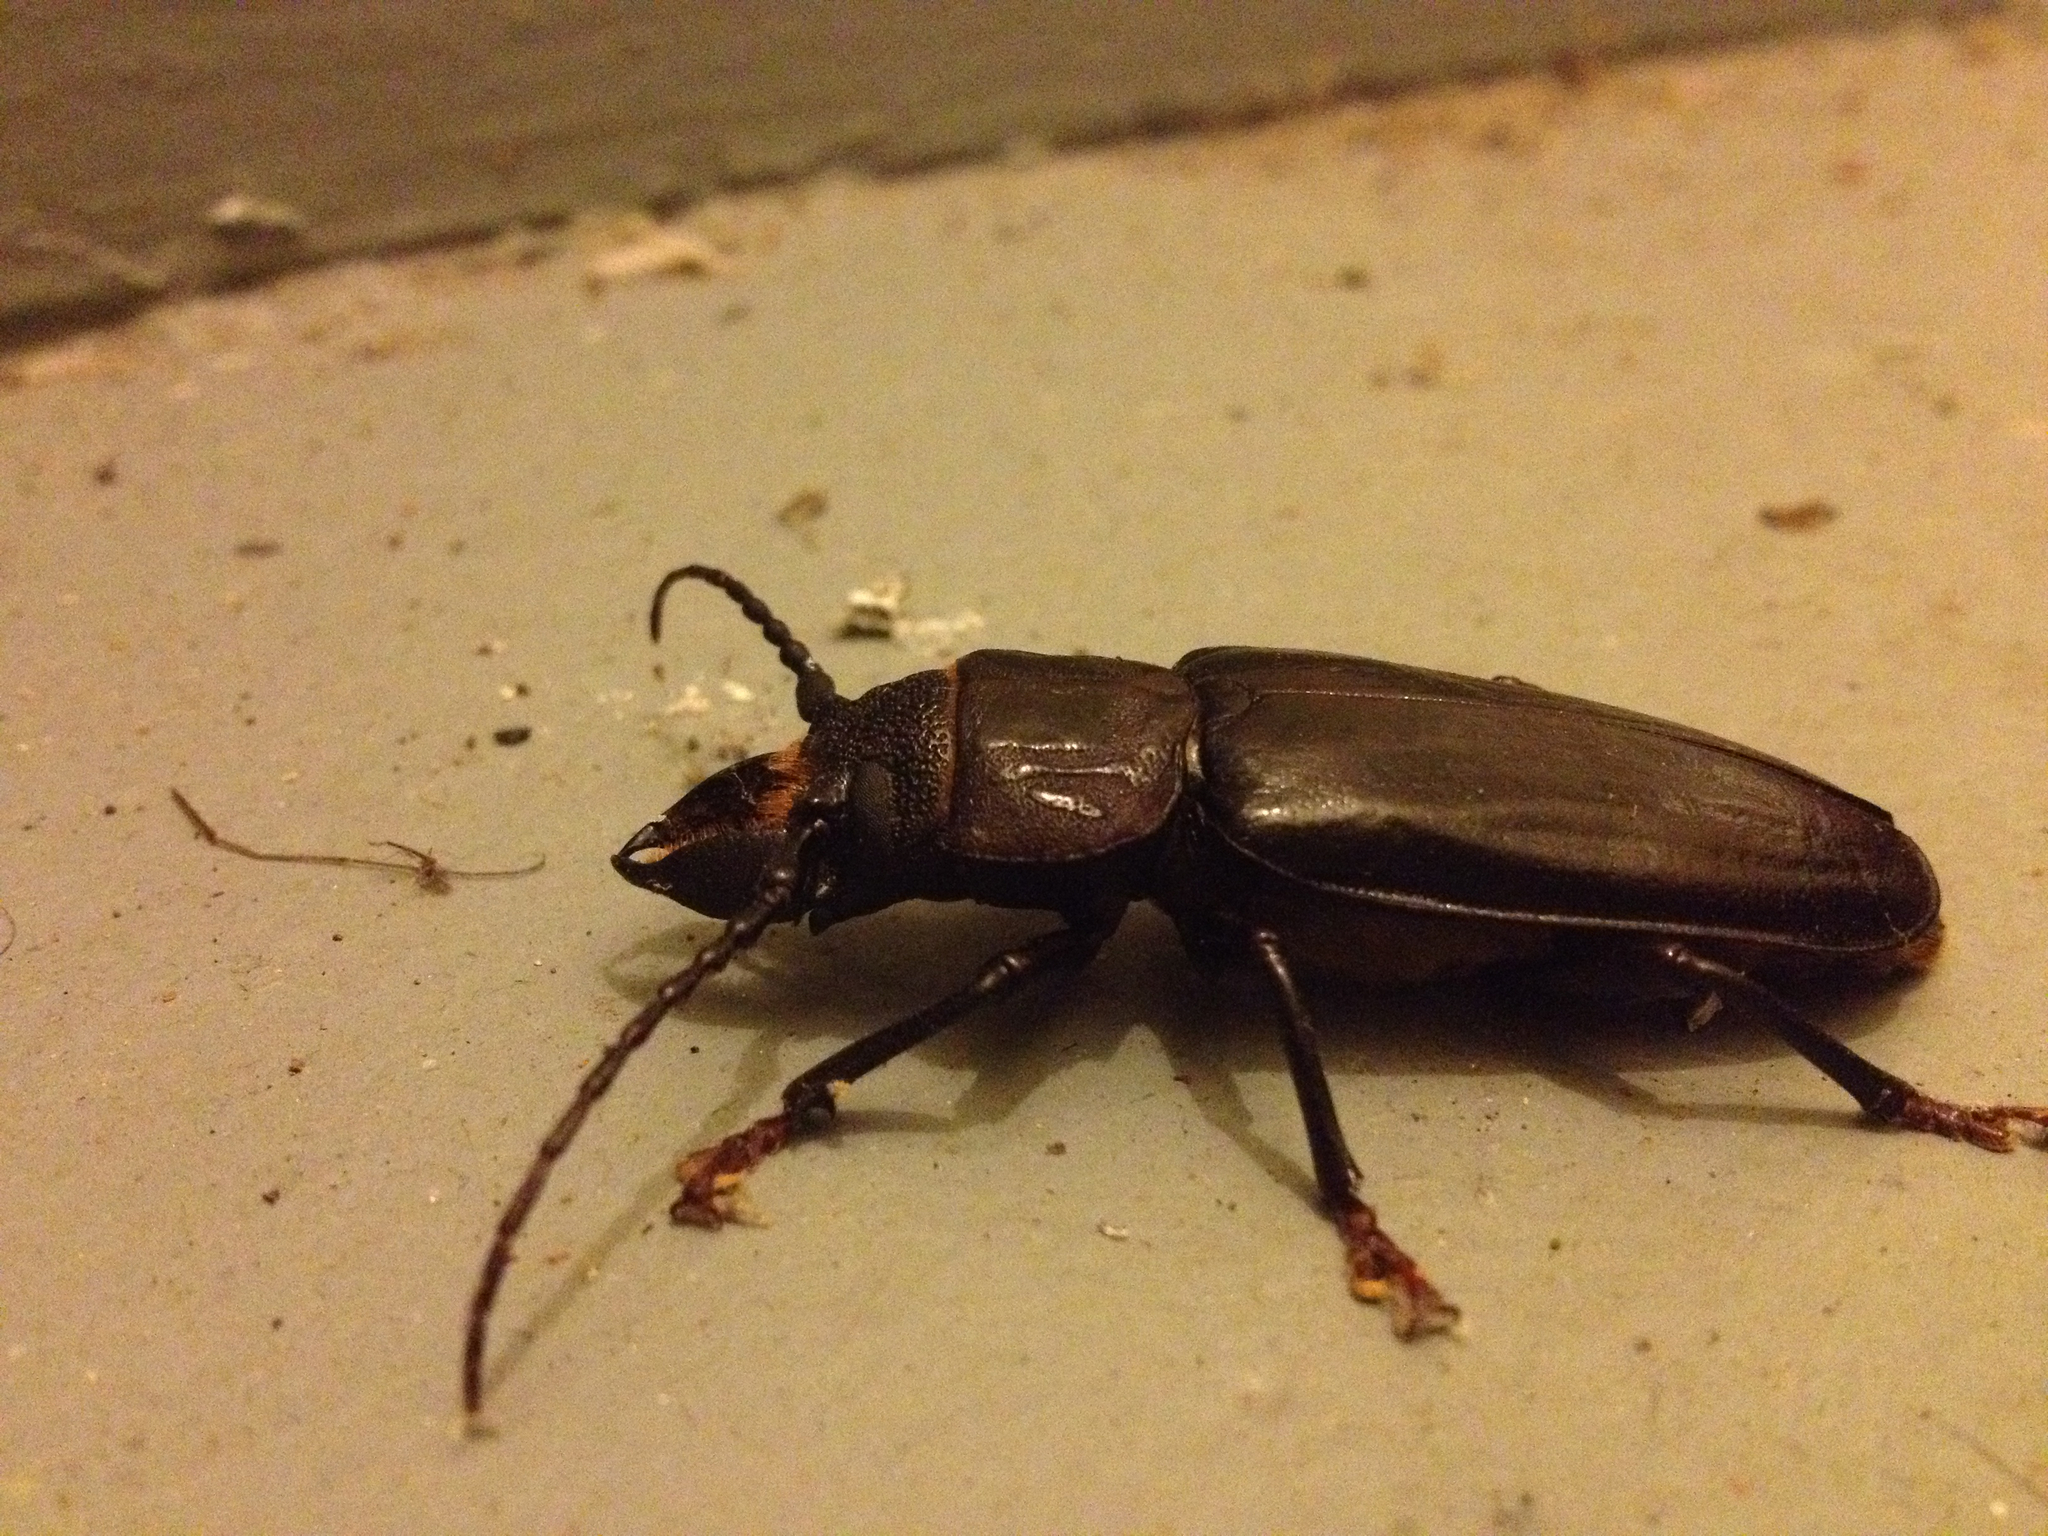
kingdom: Animalia
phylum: Arthropoda
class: Insecta
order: Coleoptera
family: Cerambycidae
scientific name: Cerambycidae
